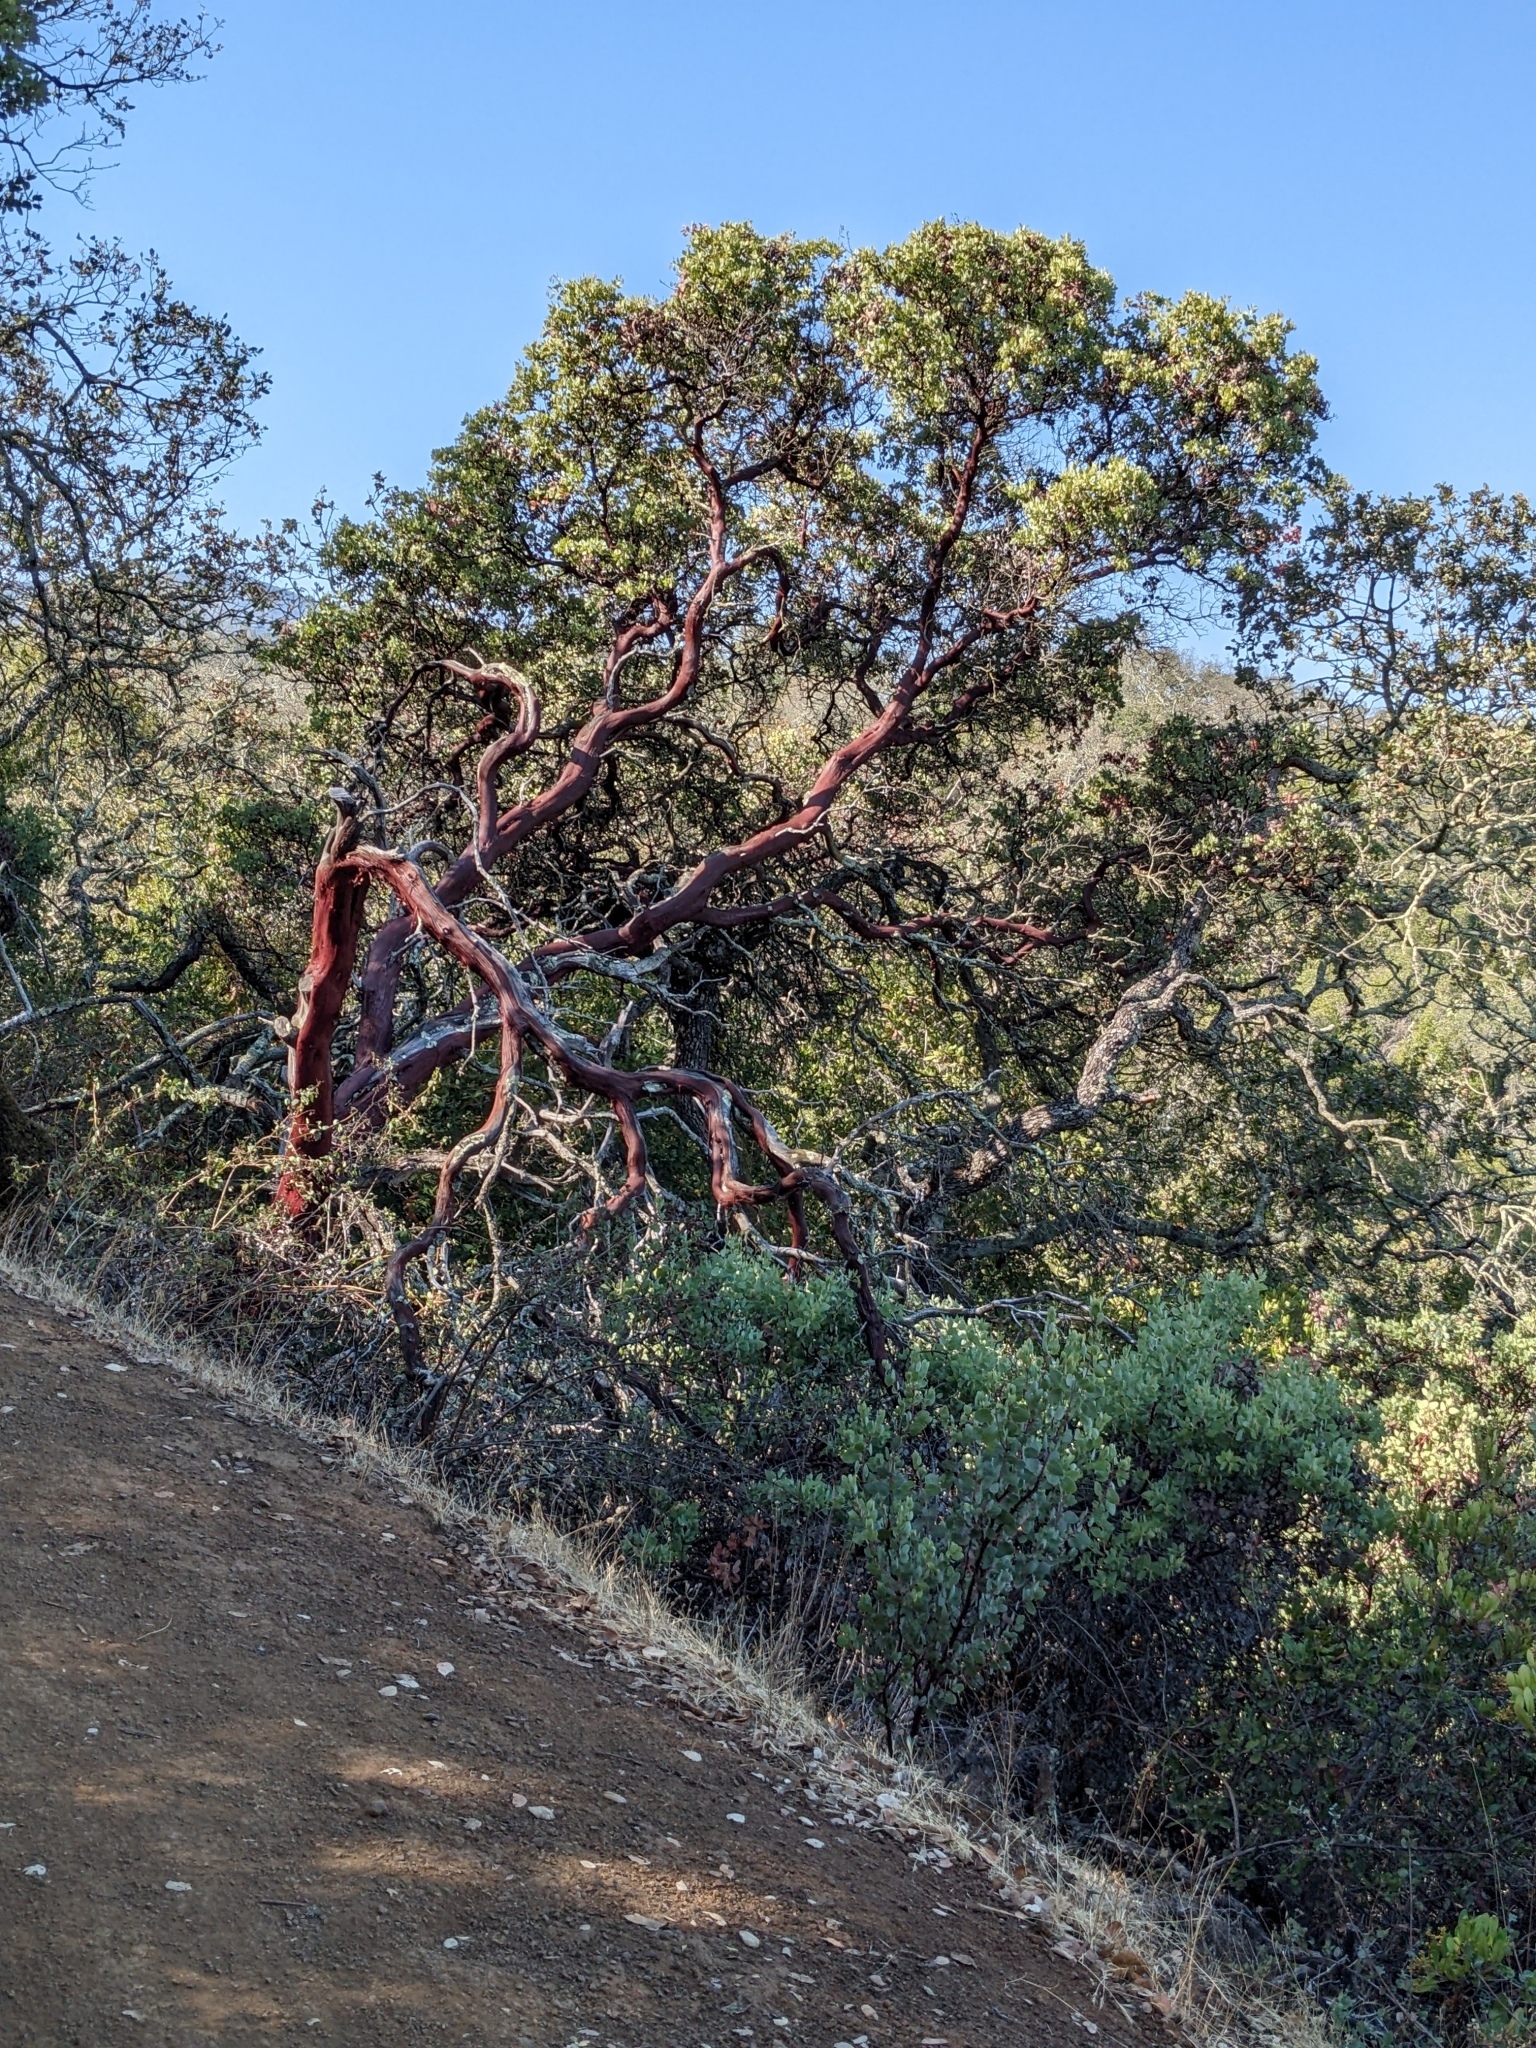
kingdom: Plantae
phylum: Tracheophyta
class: Magnoliopsida
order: Ericales
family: Ericaceae
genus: Arctostaphylos
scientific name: Arctostaphylos glauca
